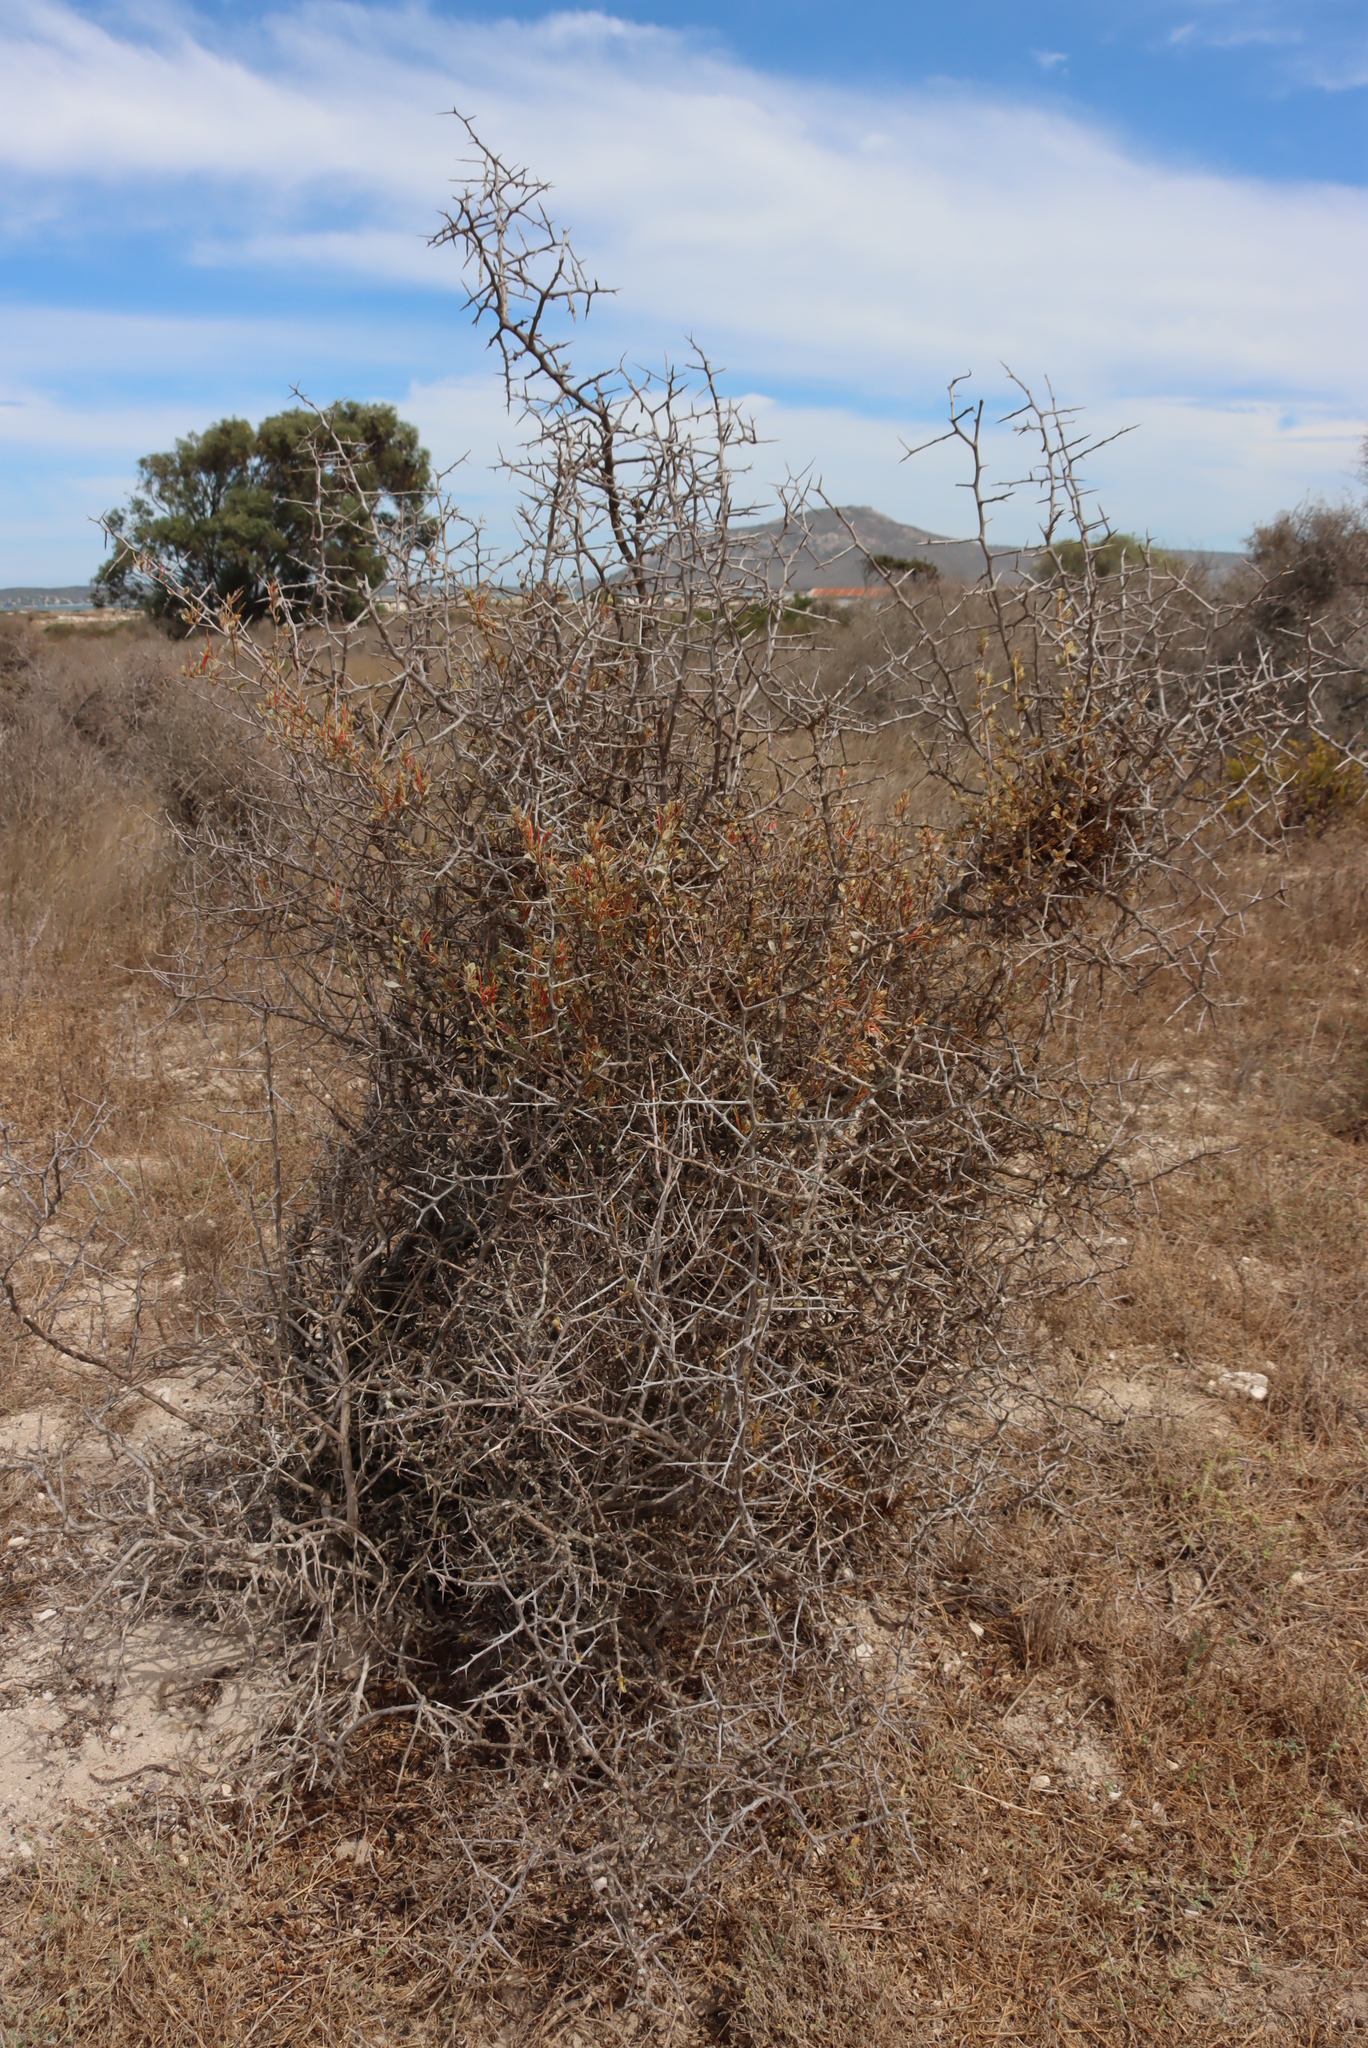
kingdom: Plantae
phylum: Tracheophyta
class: Magnoliopsida
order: Santalales
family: Loranthaceae
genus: Septulina
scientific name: Septulina glauca
